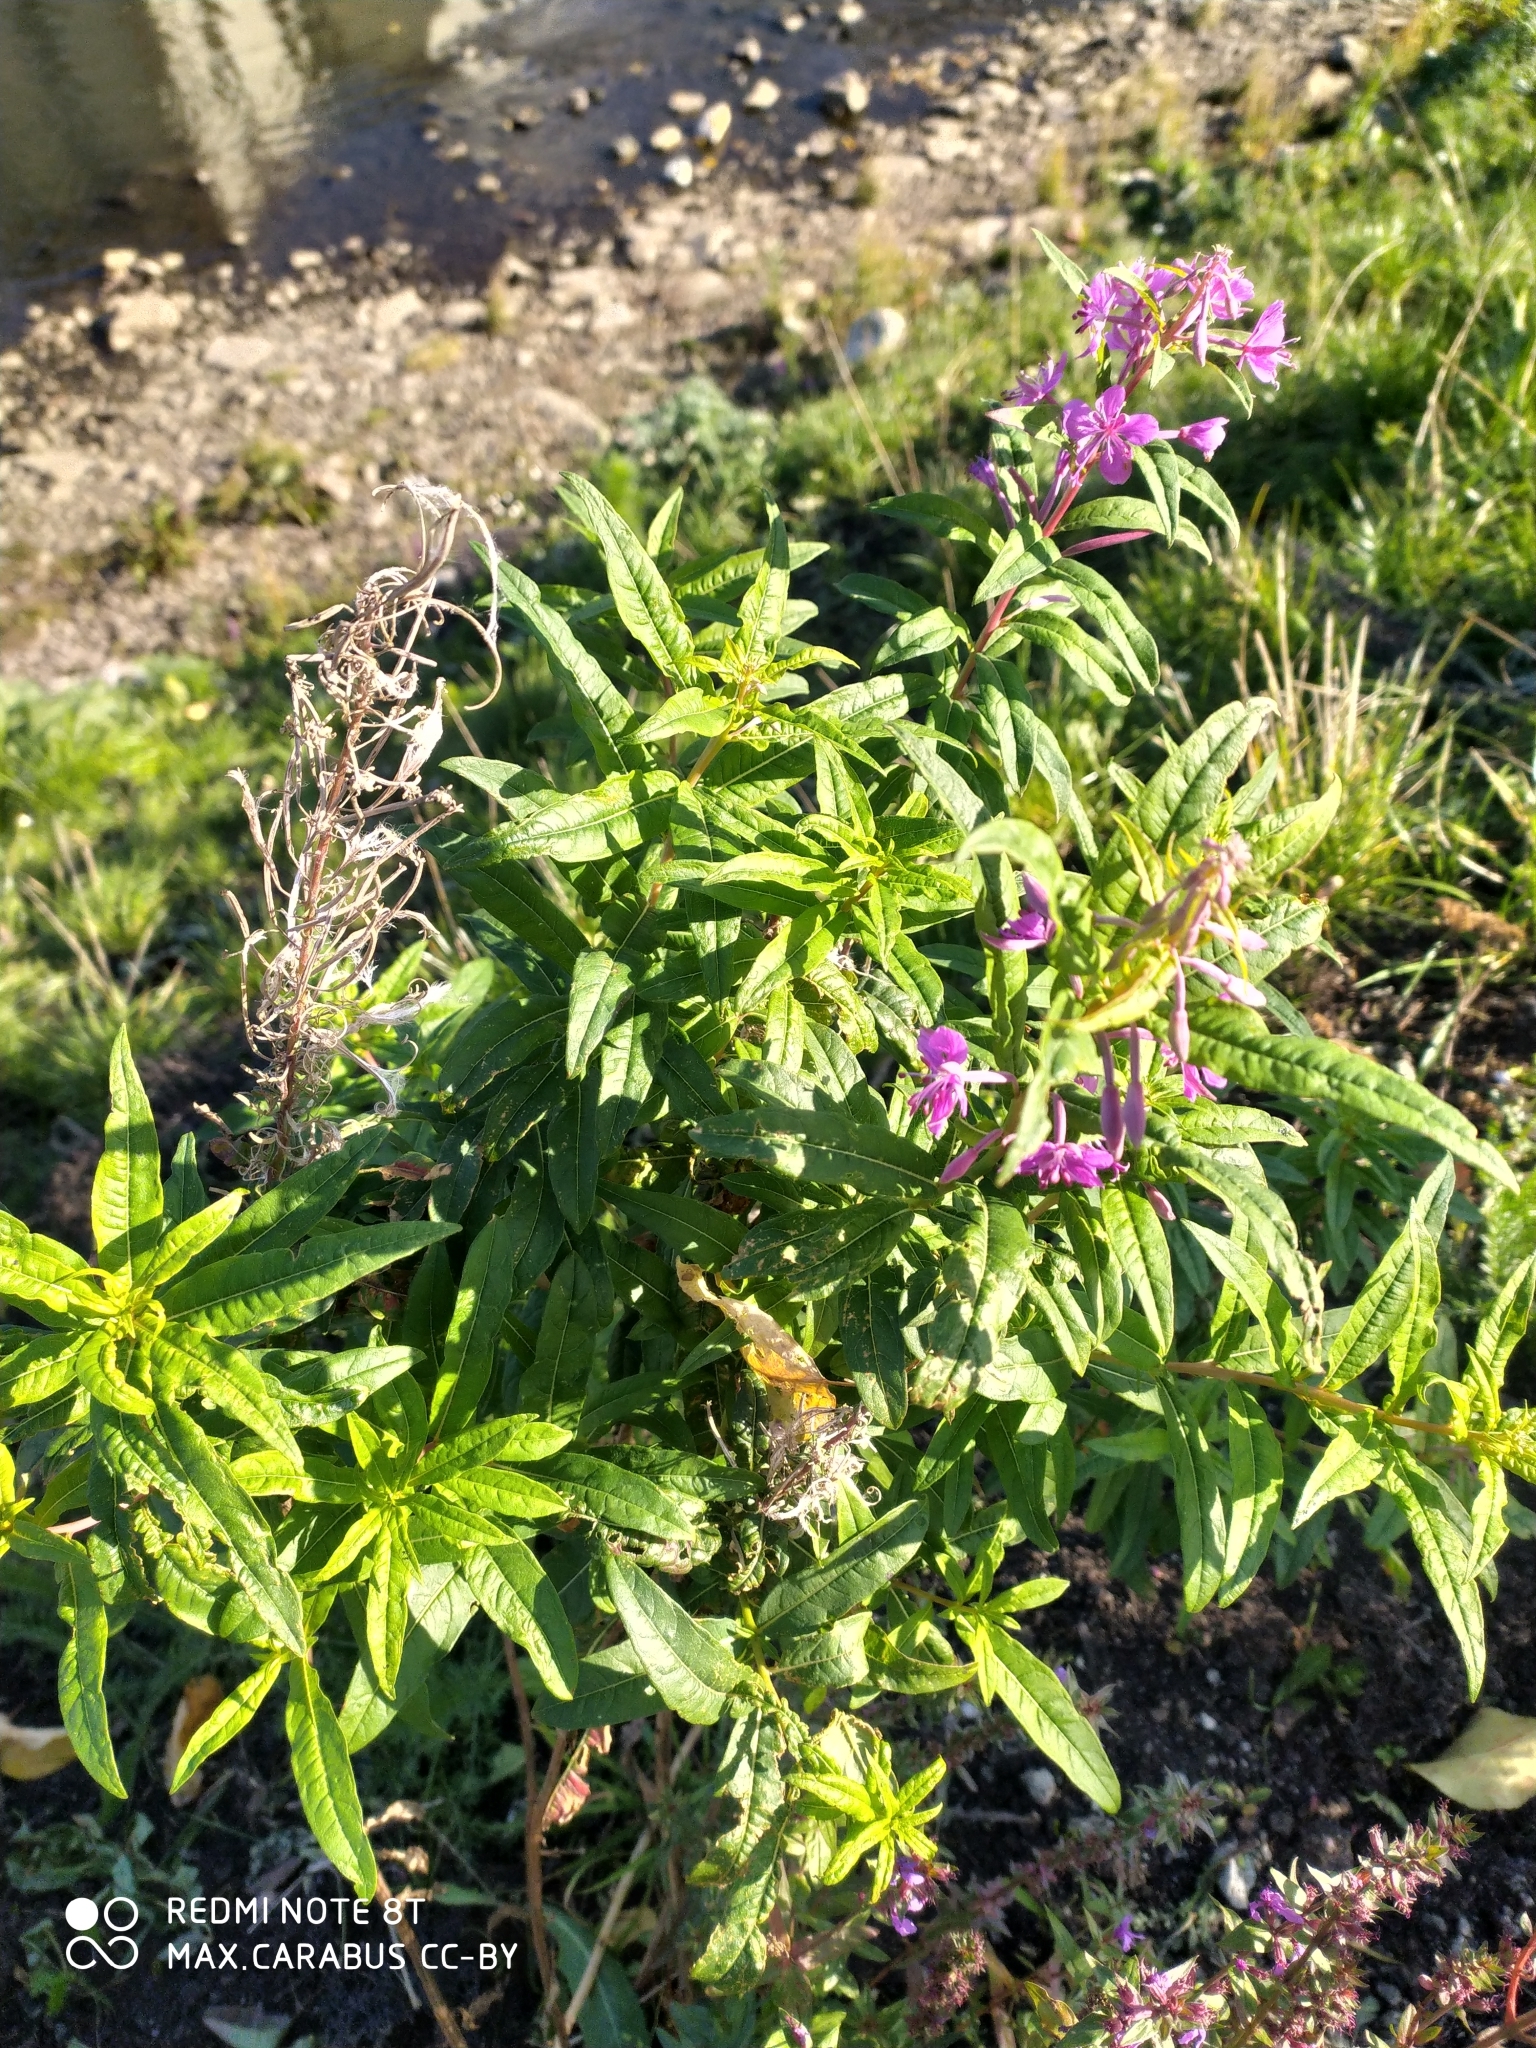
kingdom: Plantae
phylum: Tracheophyta
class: Magnoliopsida
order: Myrtales
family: Onagraceae
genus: Chamaenerion
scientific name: Chamaenerion angustifolium
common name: Fireweed
